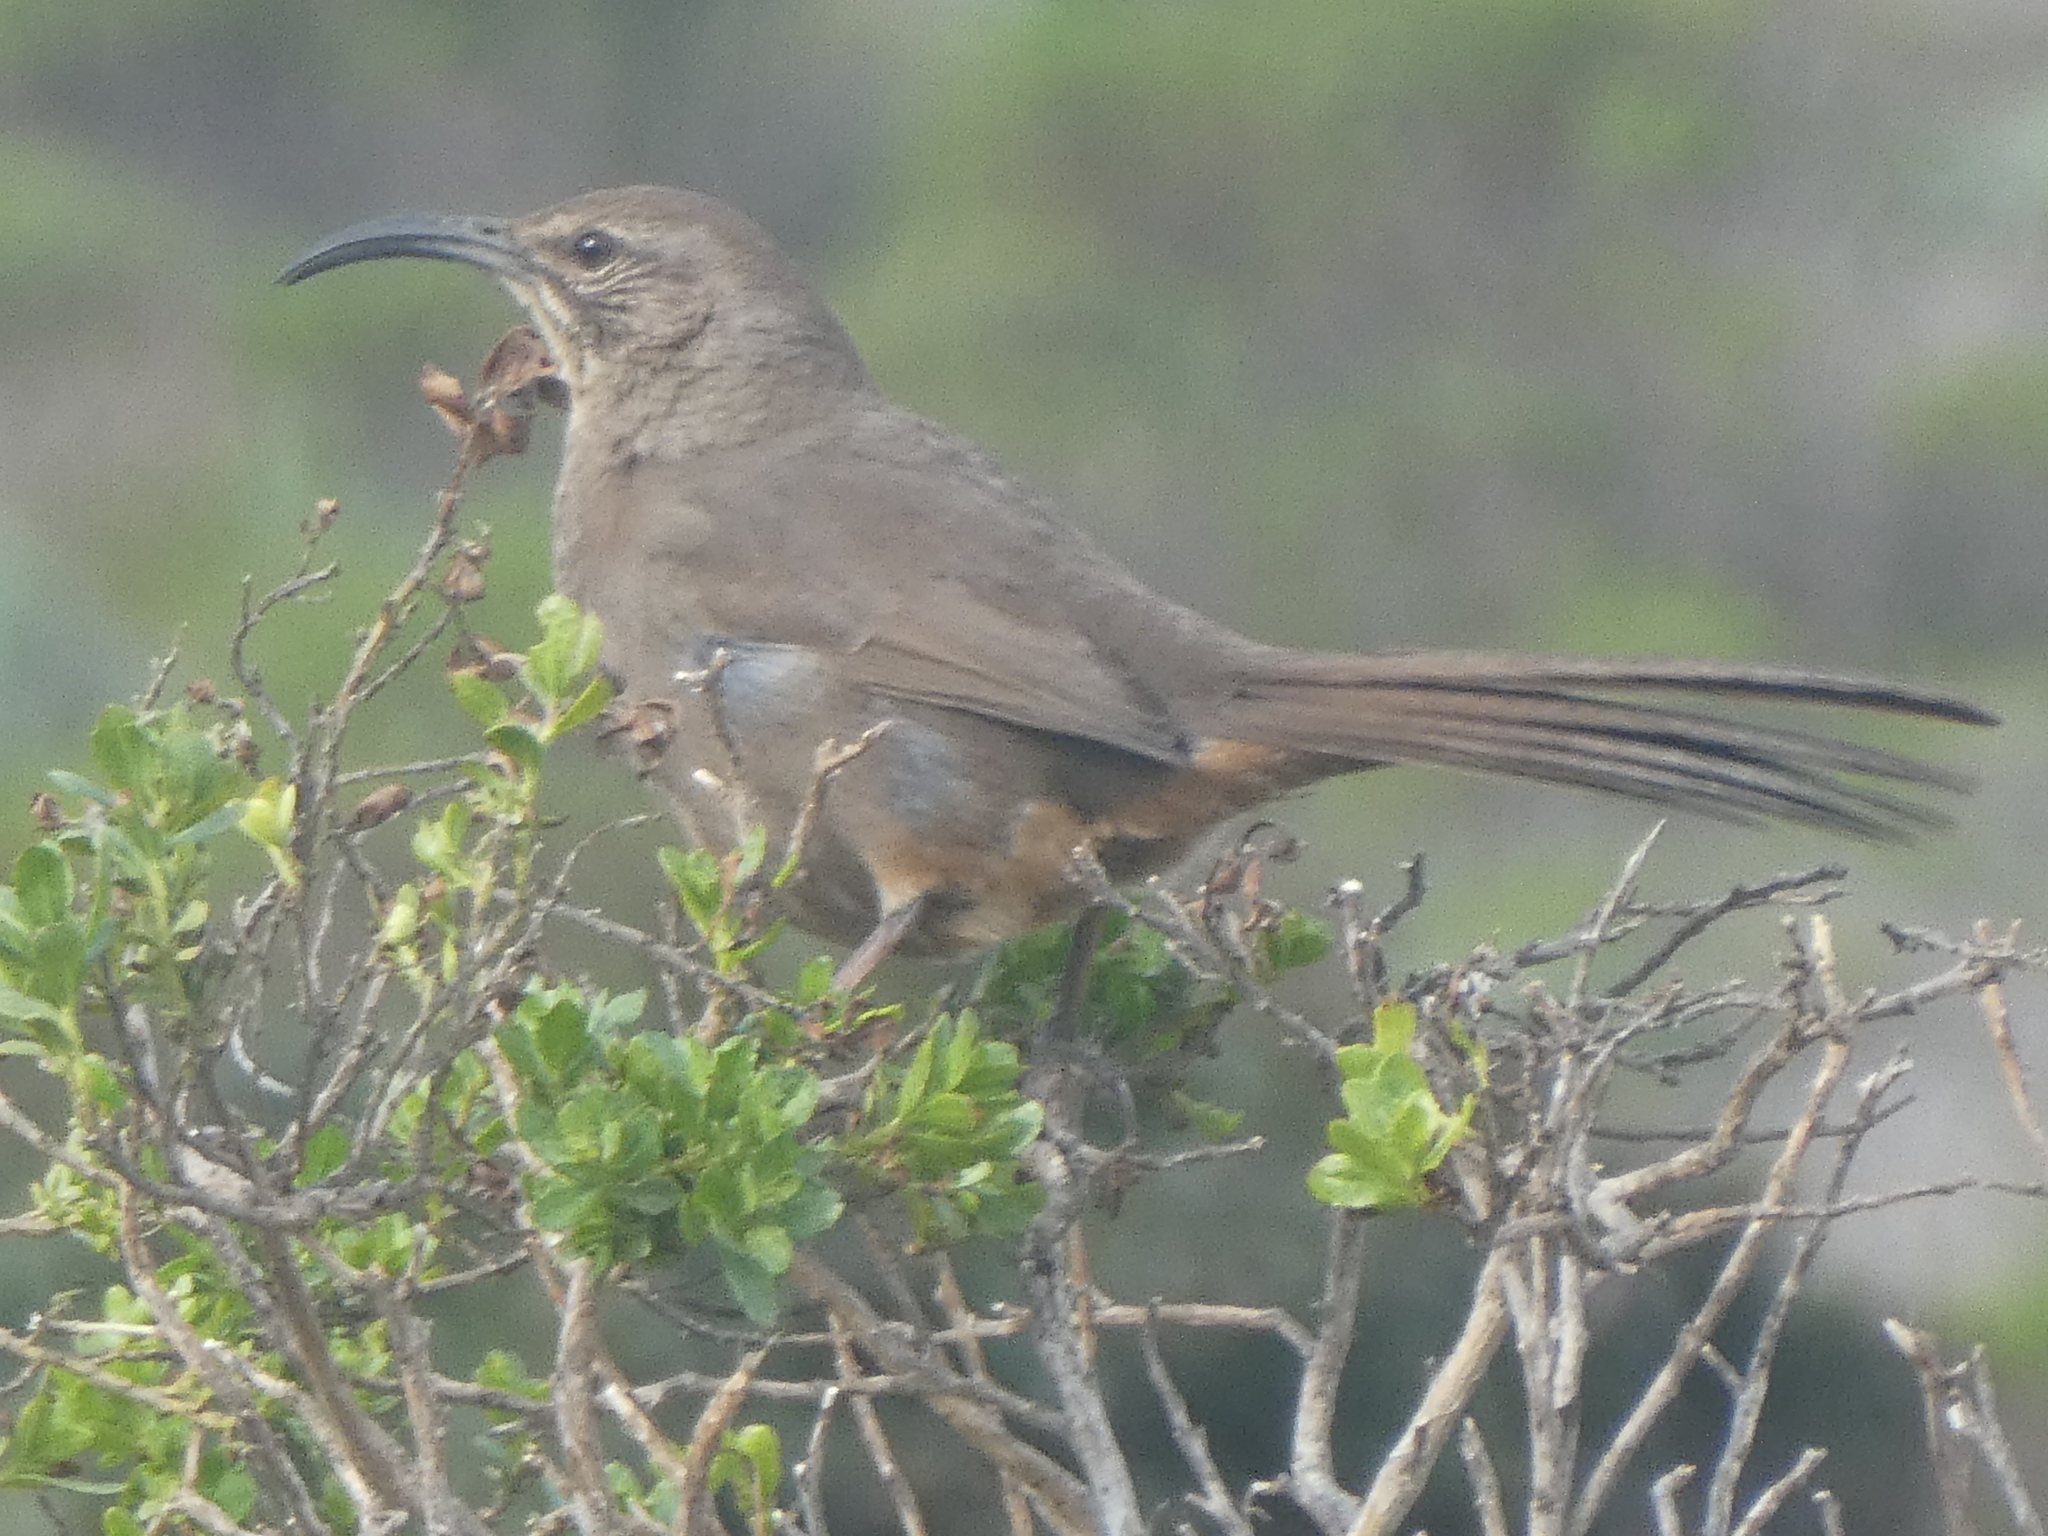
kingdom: Animalia
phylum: Chordata
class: Aves
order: Passeriformes
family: Mimidae
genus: Toxostoma
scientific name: Toxostoma redivivum
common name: California thrasher
